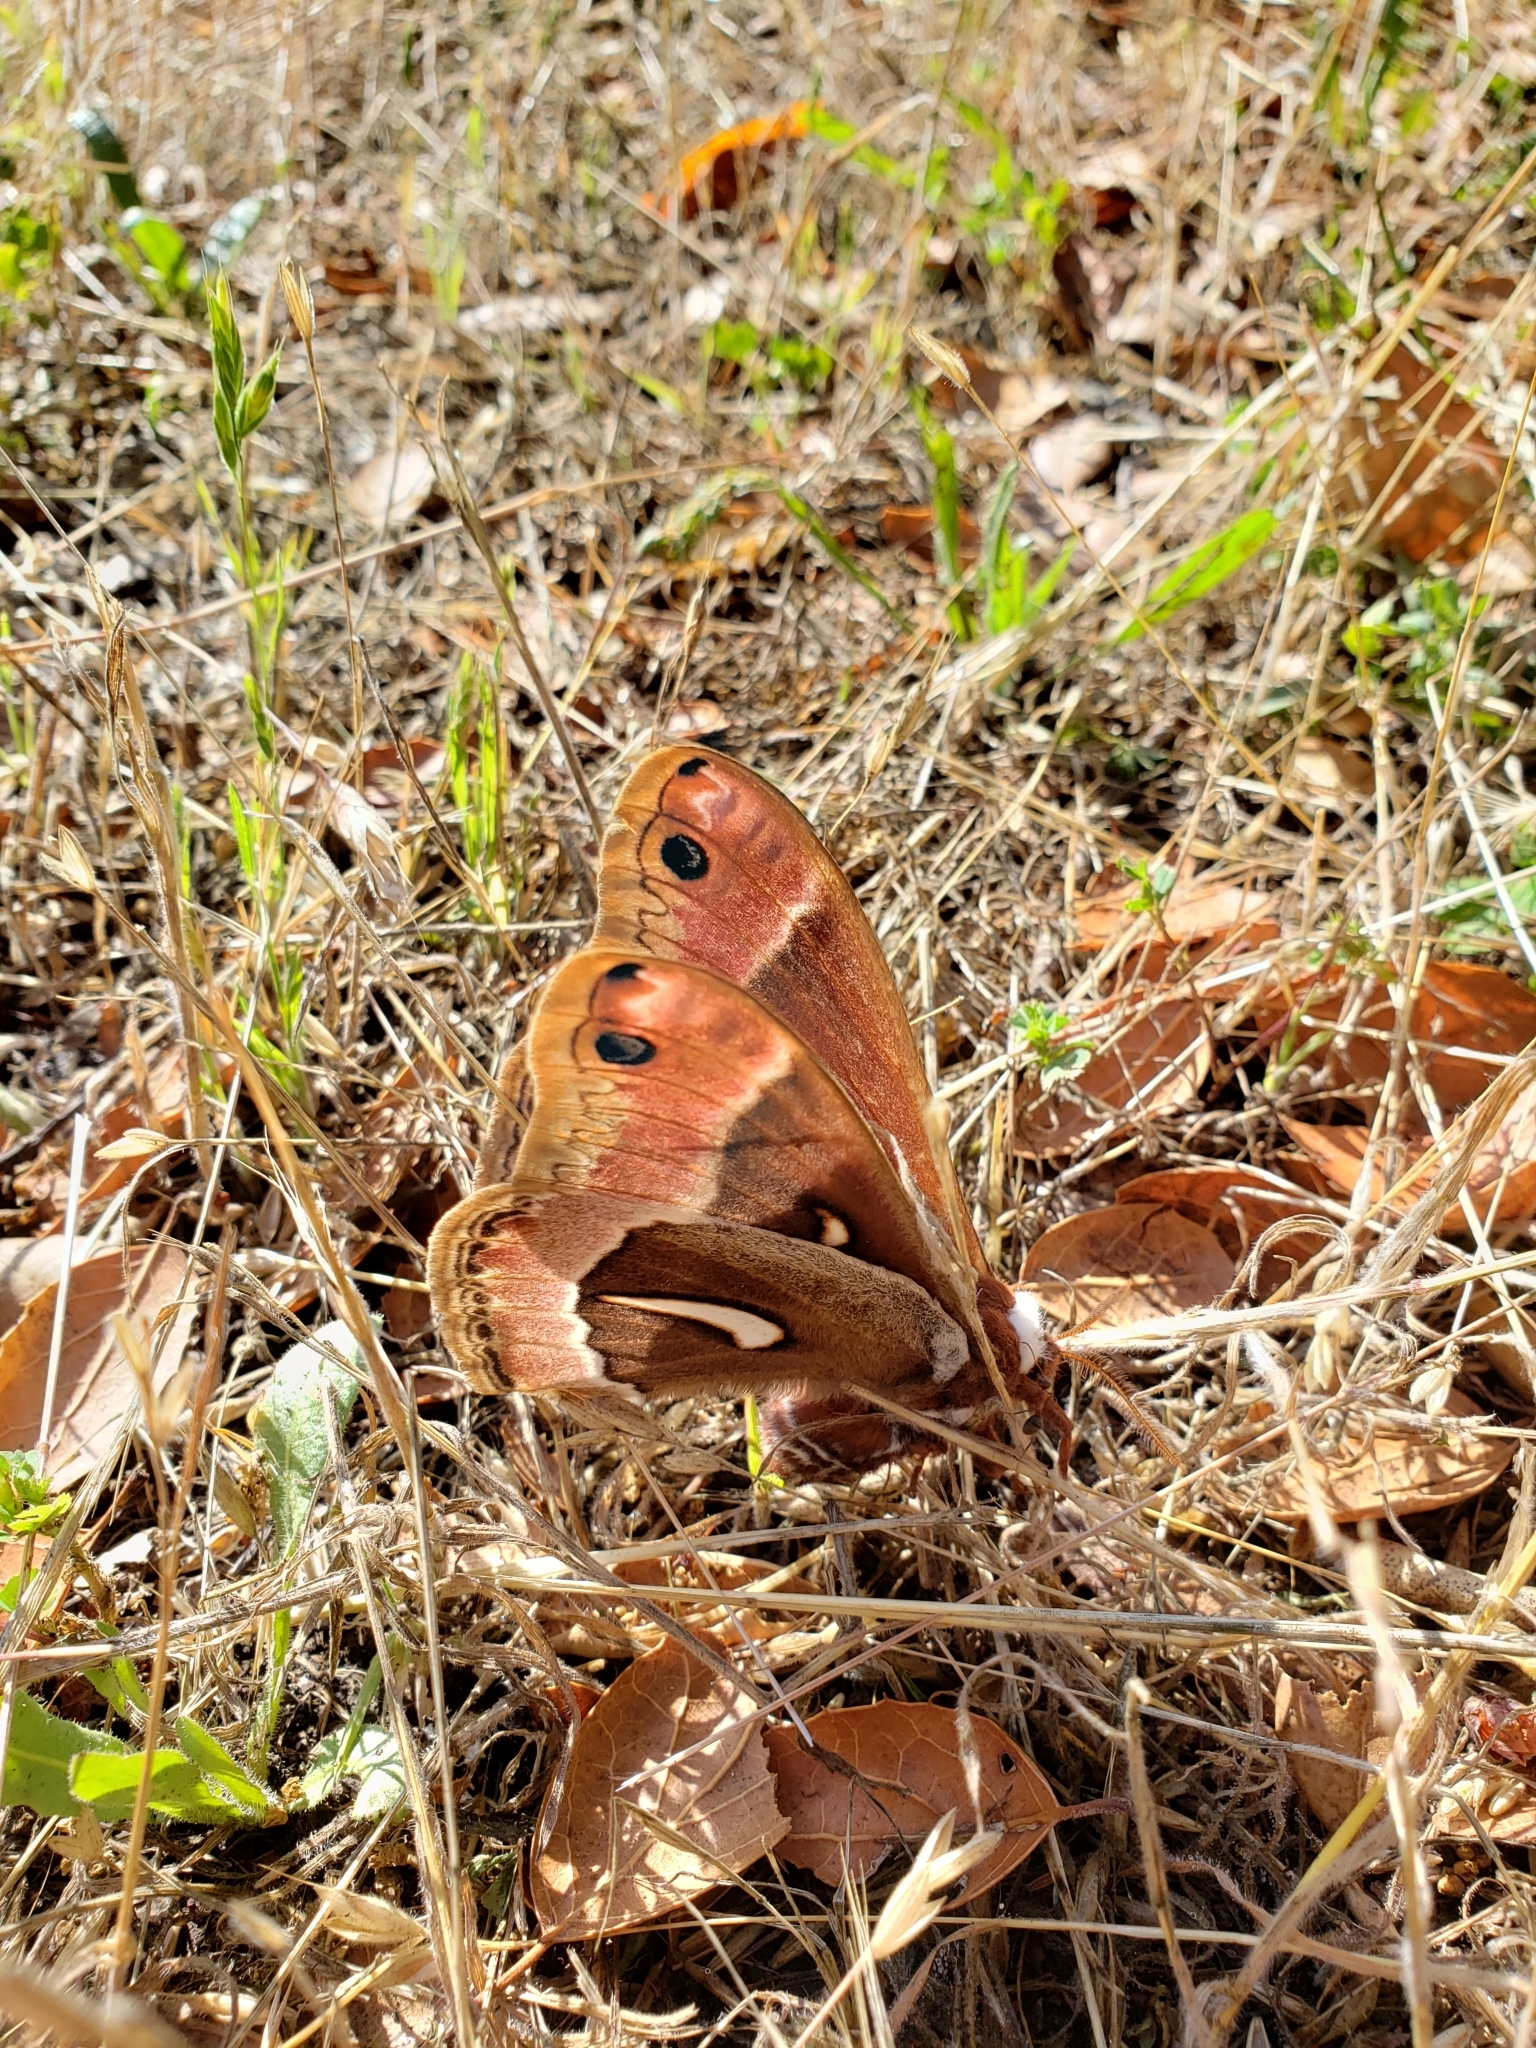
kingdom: Animalia
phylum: Arthropoda
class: Insecta
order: Lepidoptera
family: Saturniidae
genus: Hyalophora
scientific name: Hyalophora euryalus
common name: Ceanothus silkmoth
